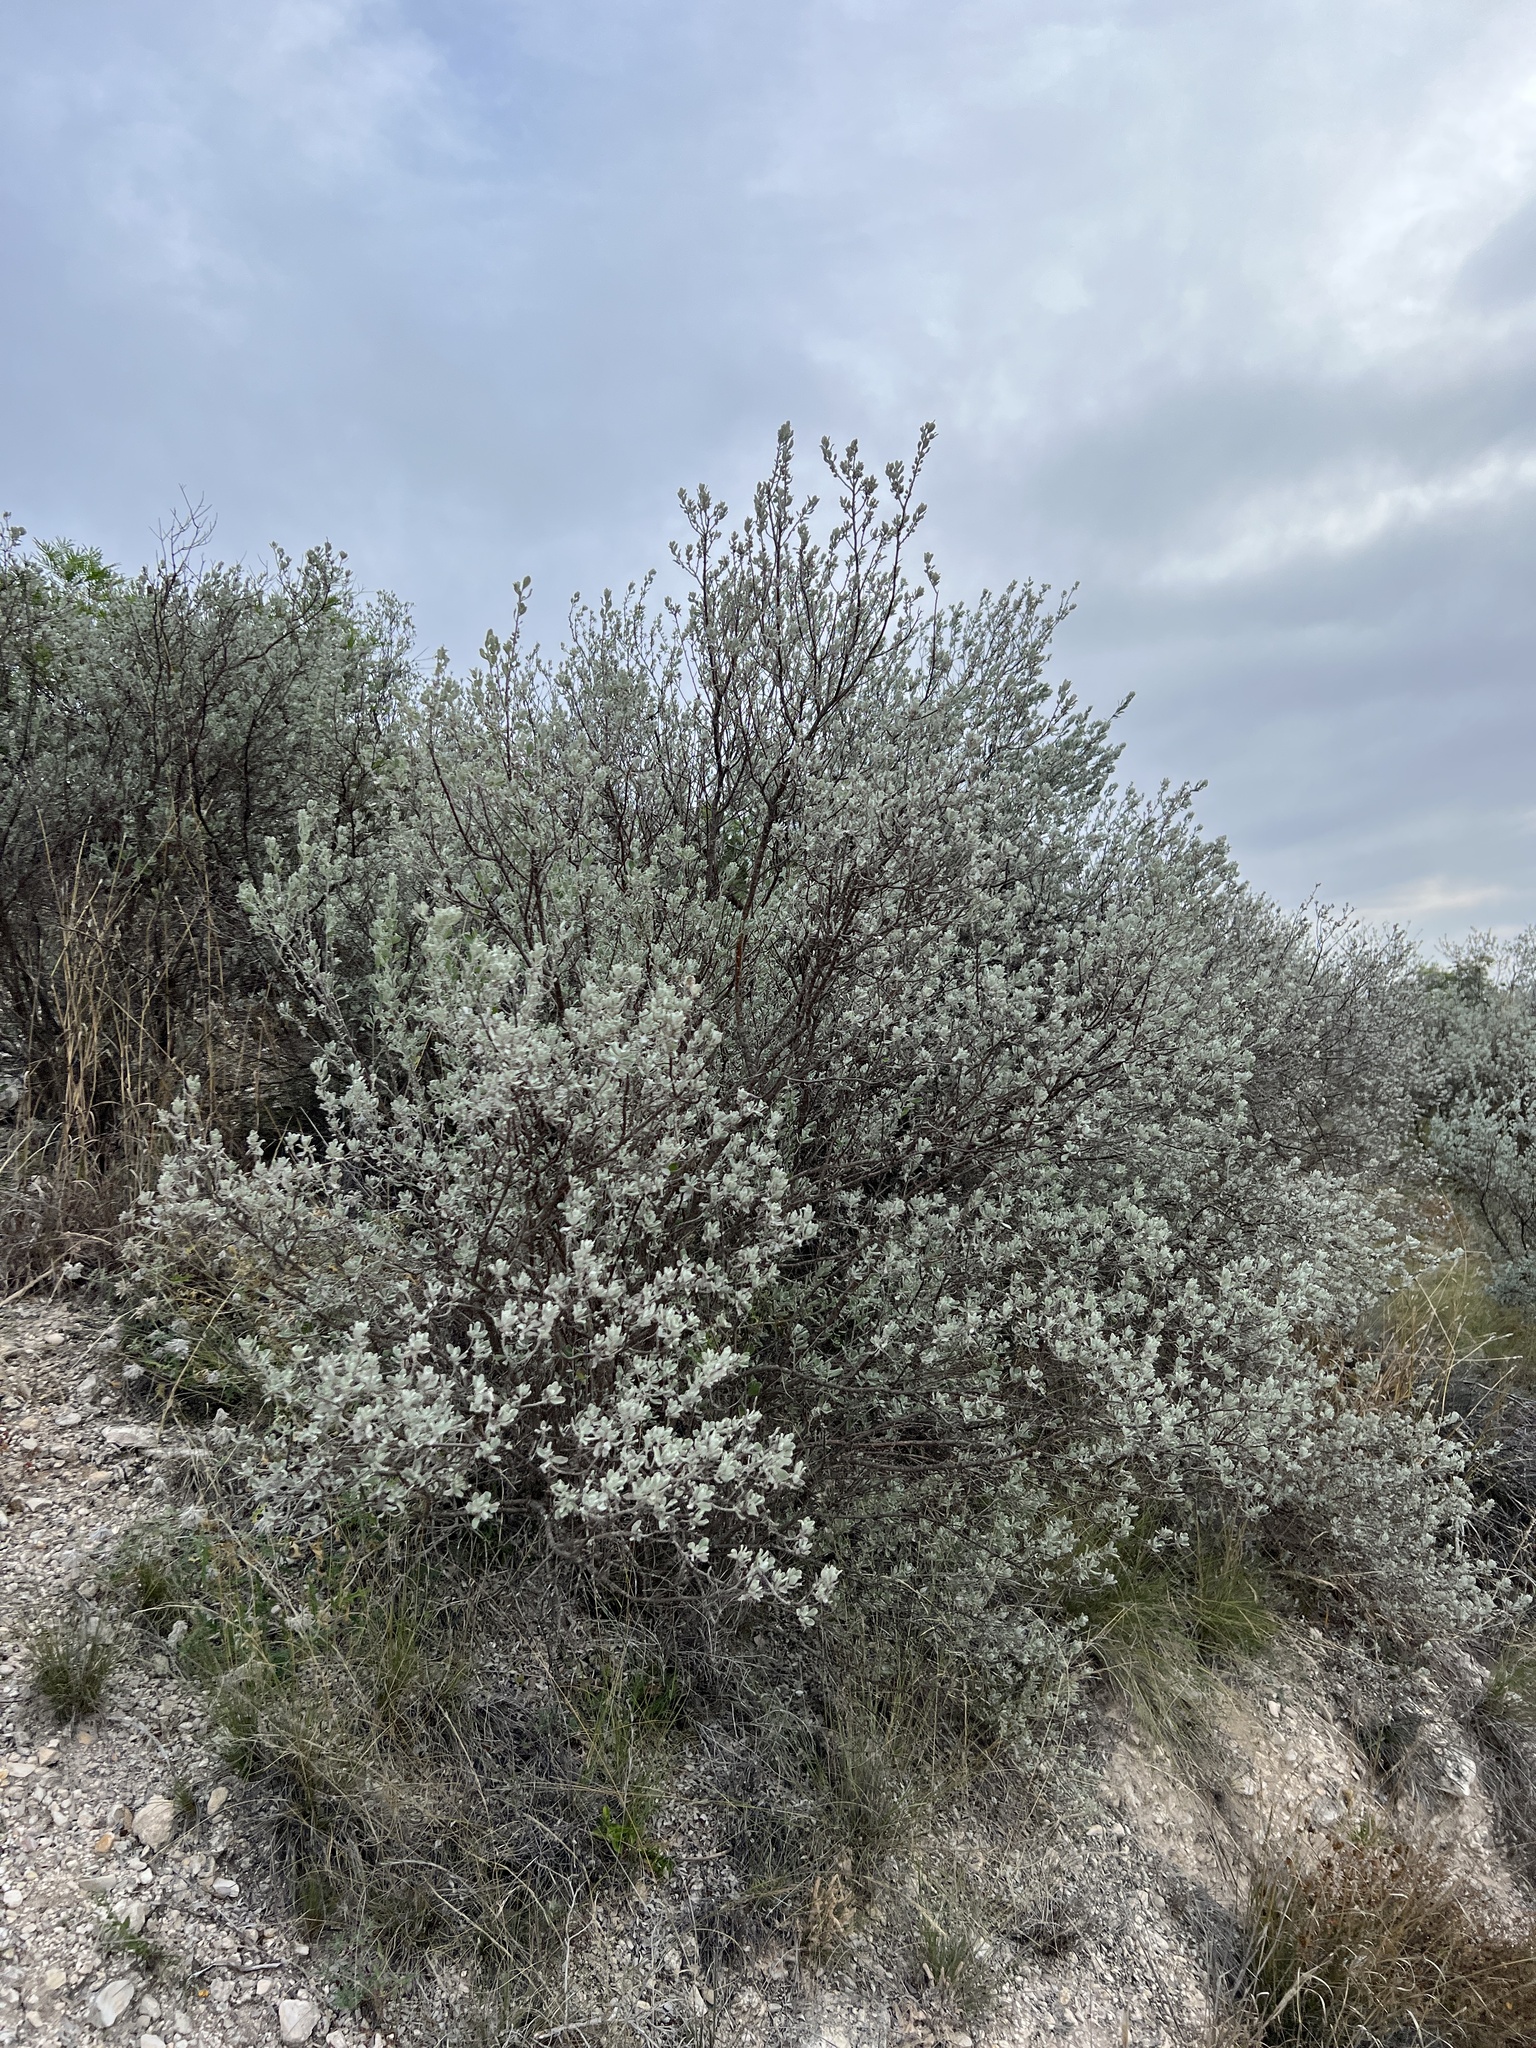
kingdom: Plantae
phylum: Tracheophyta
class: Magnoliopsida
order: Lamiales
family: Scrophulariaceae
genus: Leucophyllum
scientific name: Leucophyllum frutescens
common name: Texas silverleaf
